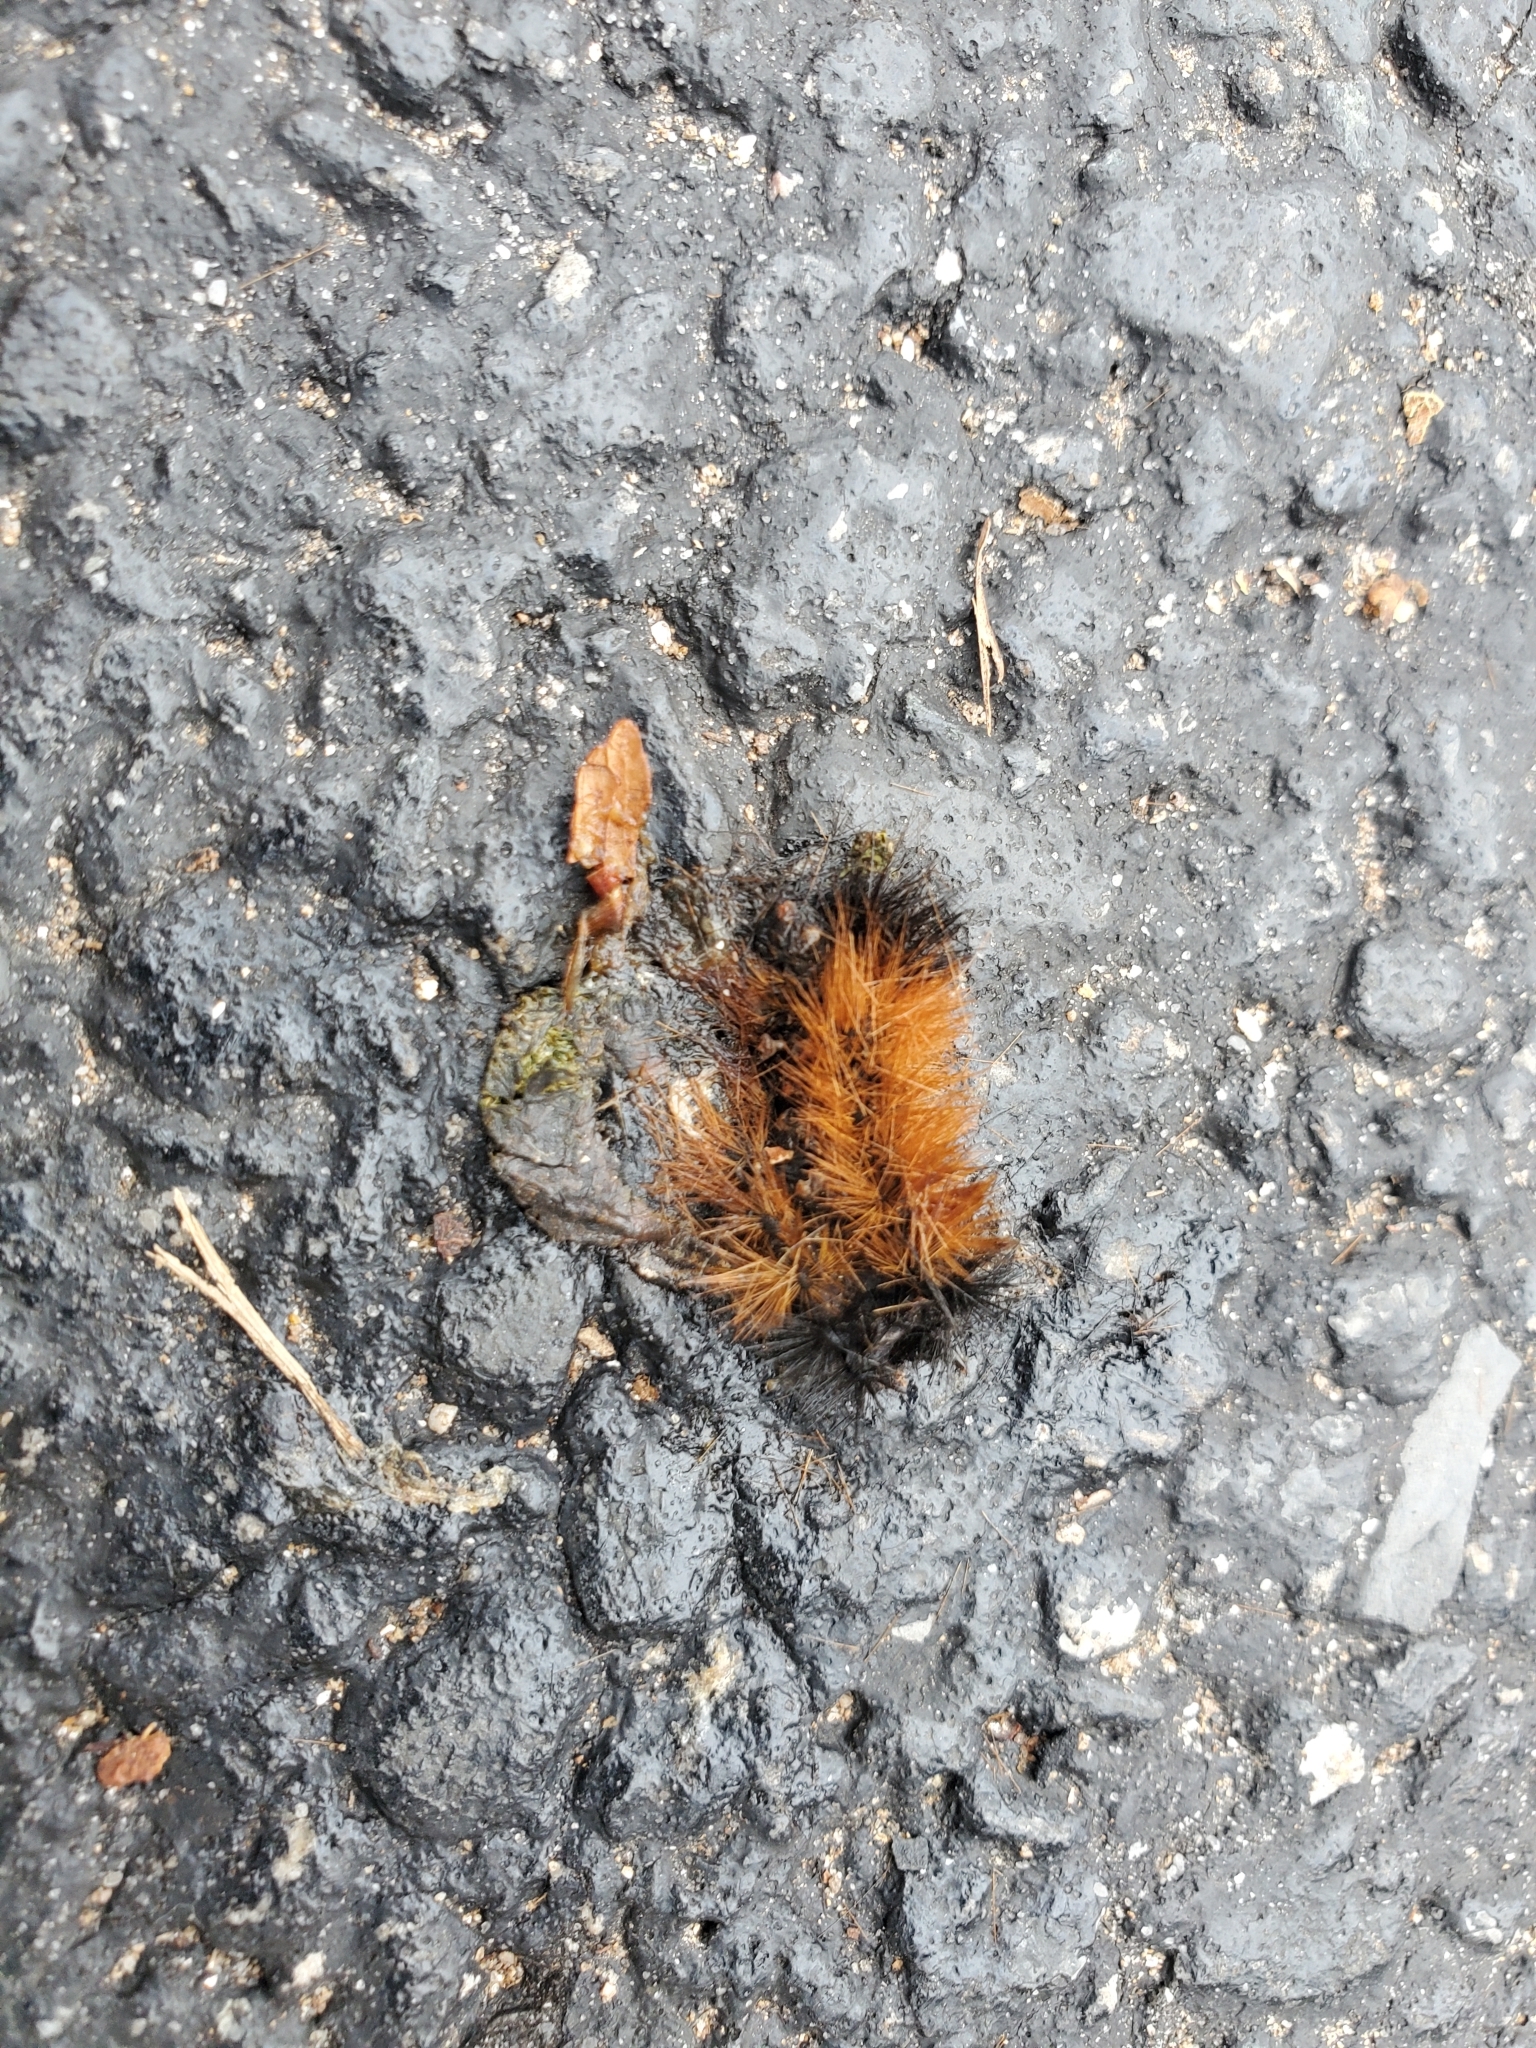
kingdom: Animalia
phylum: Arthropoda
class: Insecta
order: Lepidoptera
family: Erebidae
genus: Pyrrharctia
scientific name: Pyrrharctia isabella
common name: Isabella tiger moth
